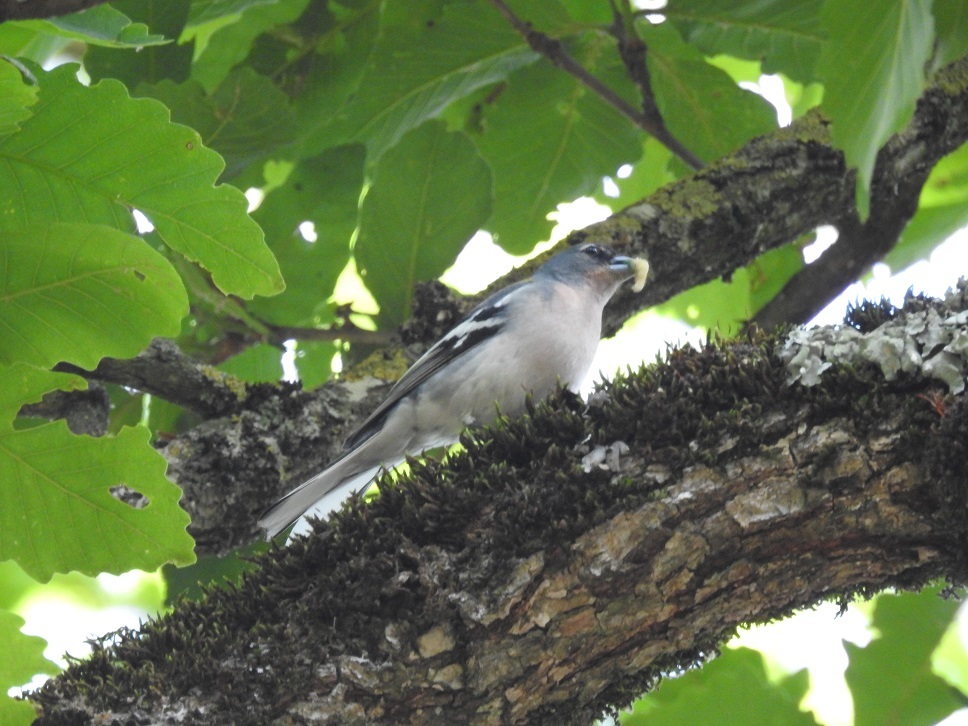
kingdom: Animalia
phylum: Chordata
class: Aves
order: Passeriformes
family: Fringillidae
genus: Fringilla
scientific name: Fringilla spodiogenys
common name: African chaffinch
